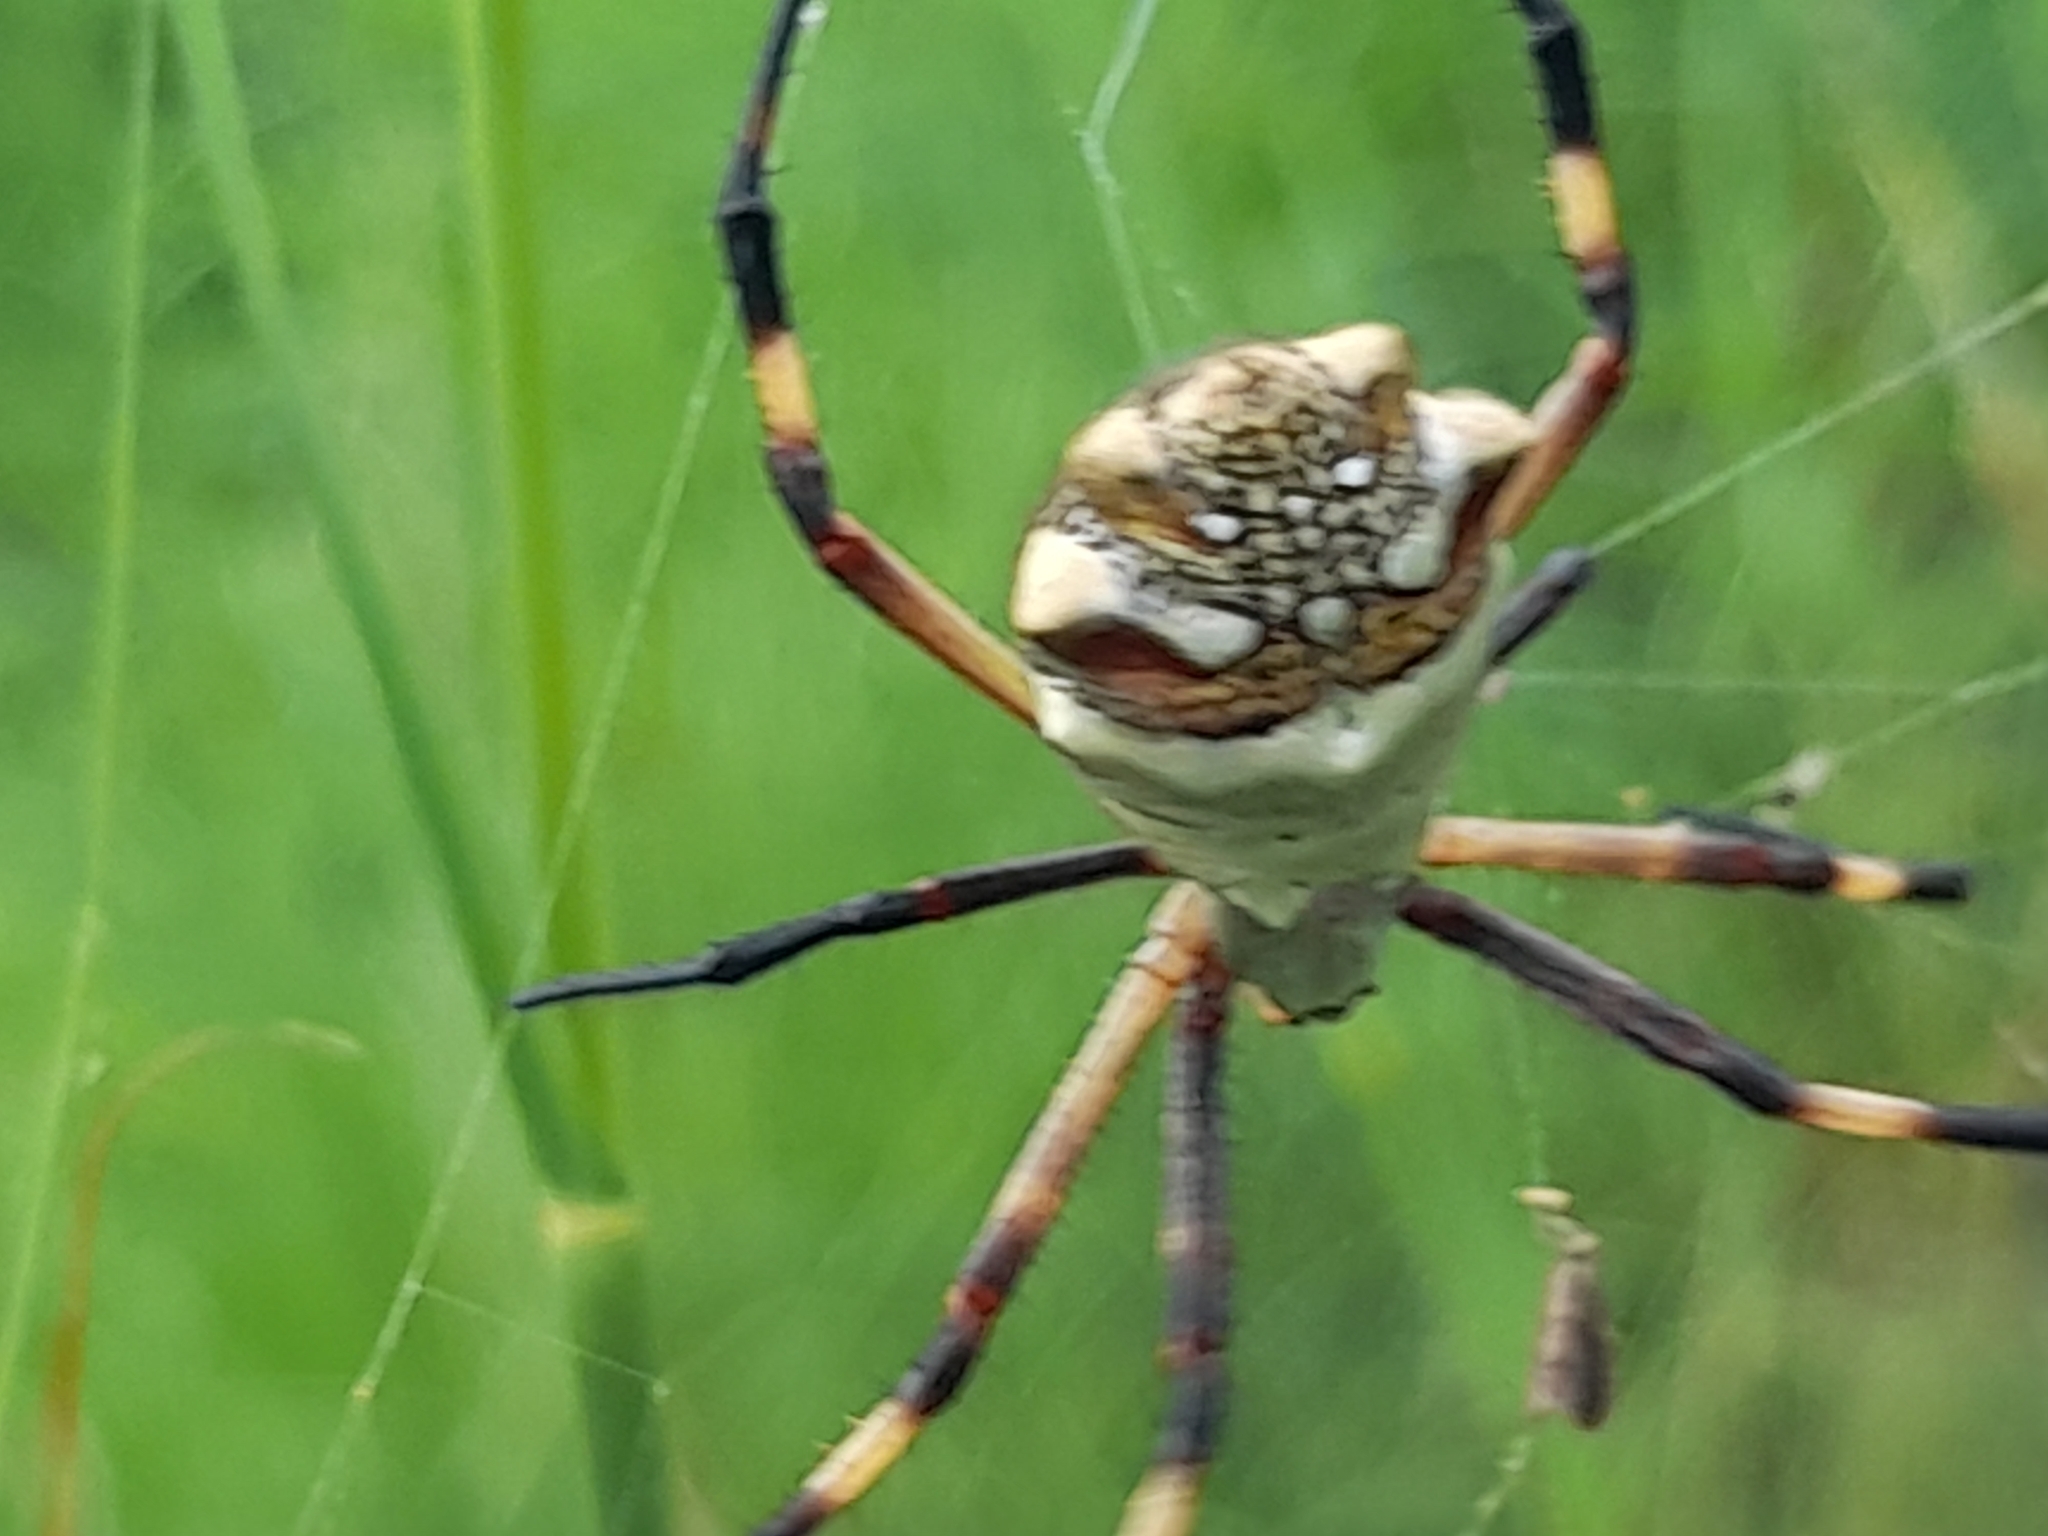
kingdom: Animalia
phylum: Arthropoda
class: Arachnida
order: Araneae
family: Araneidae
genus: Argiope
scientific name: Argiope argentata
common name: Orb weavers
